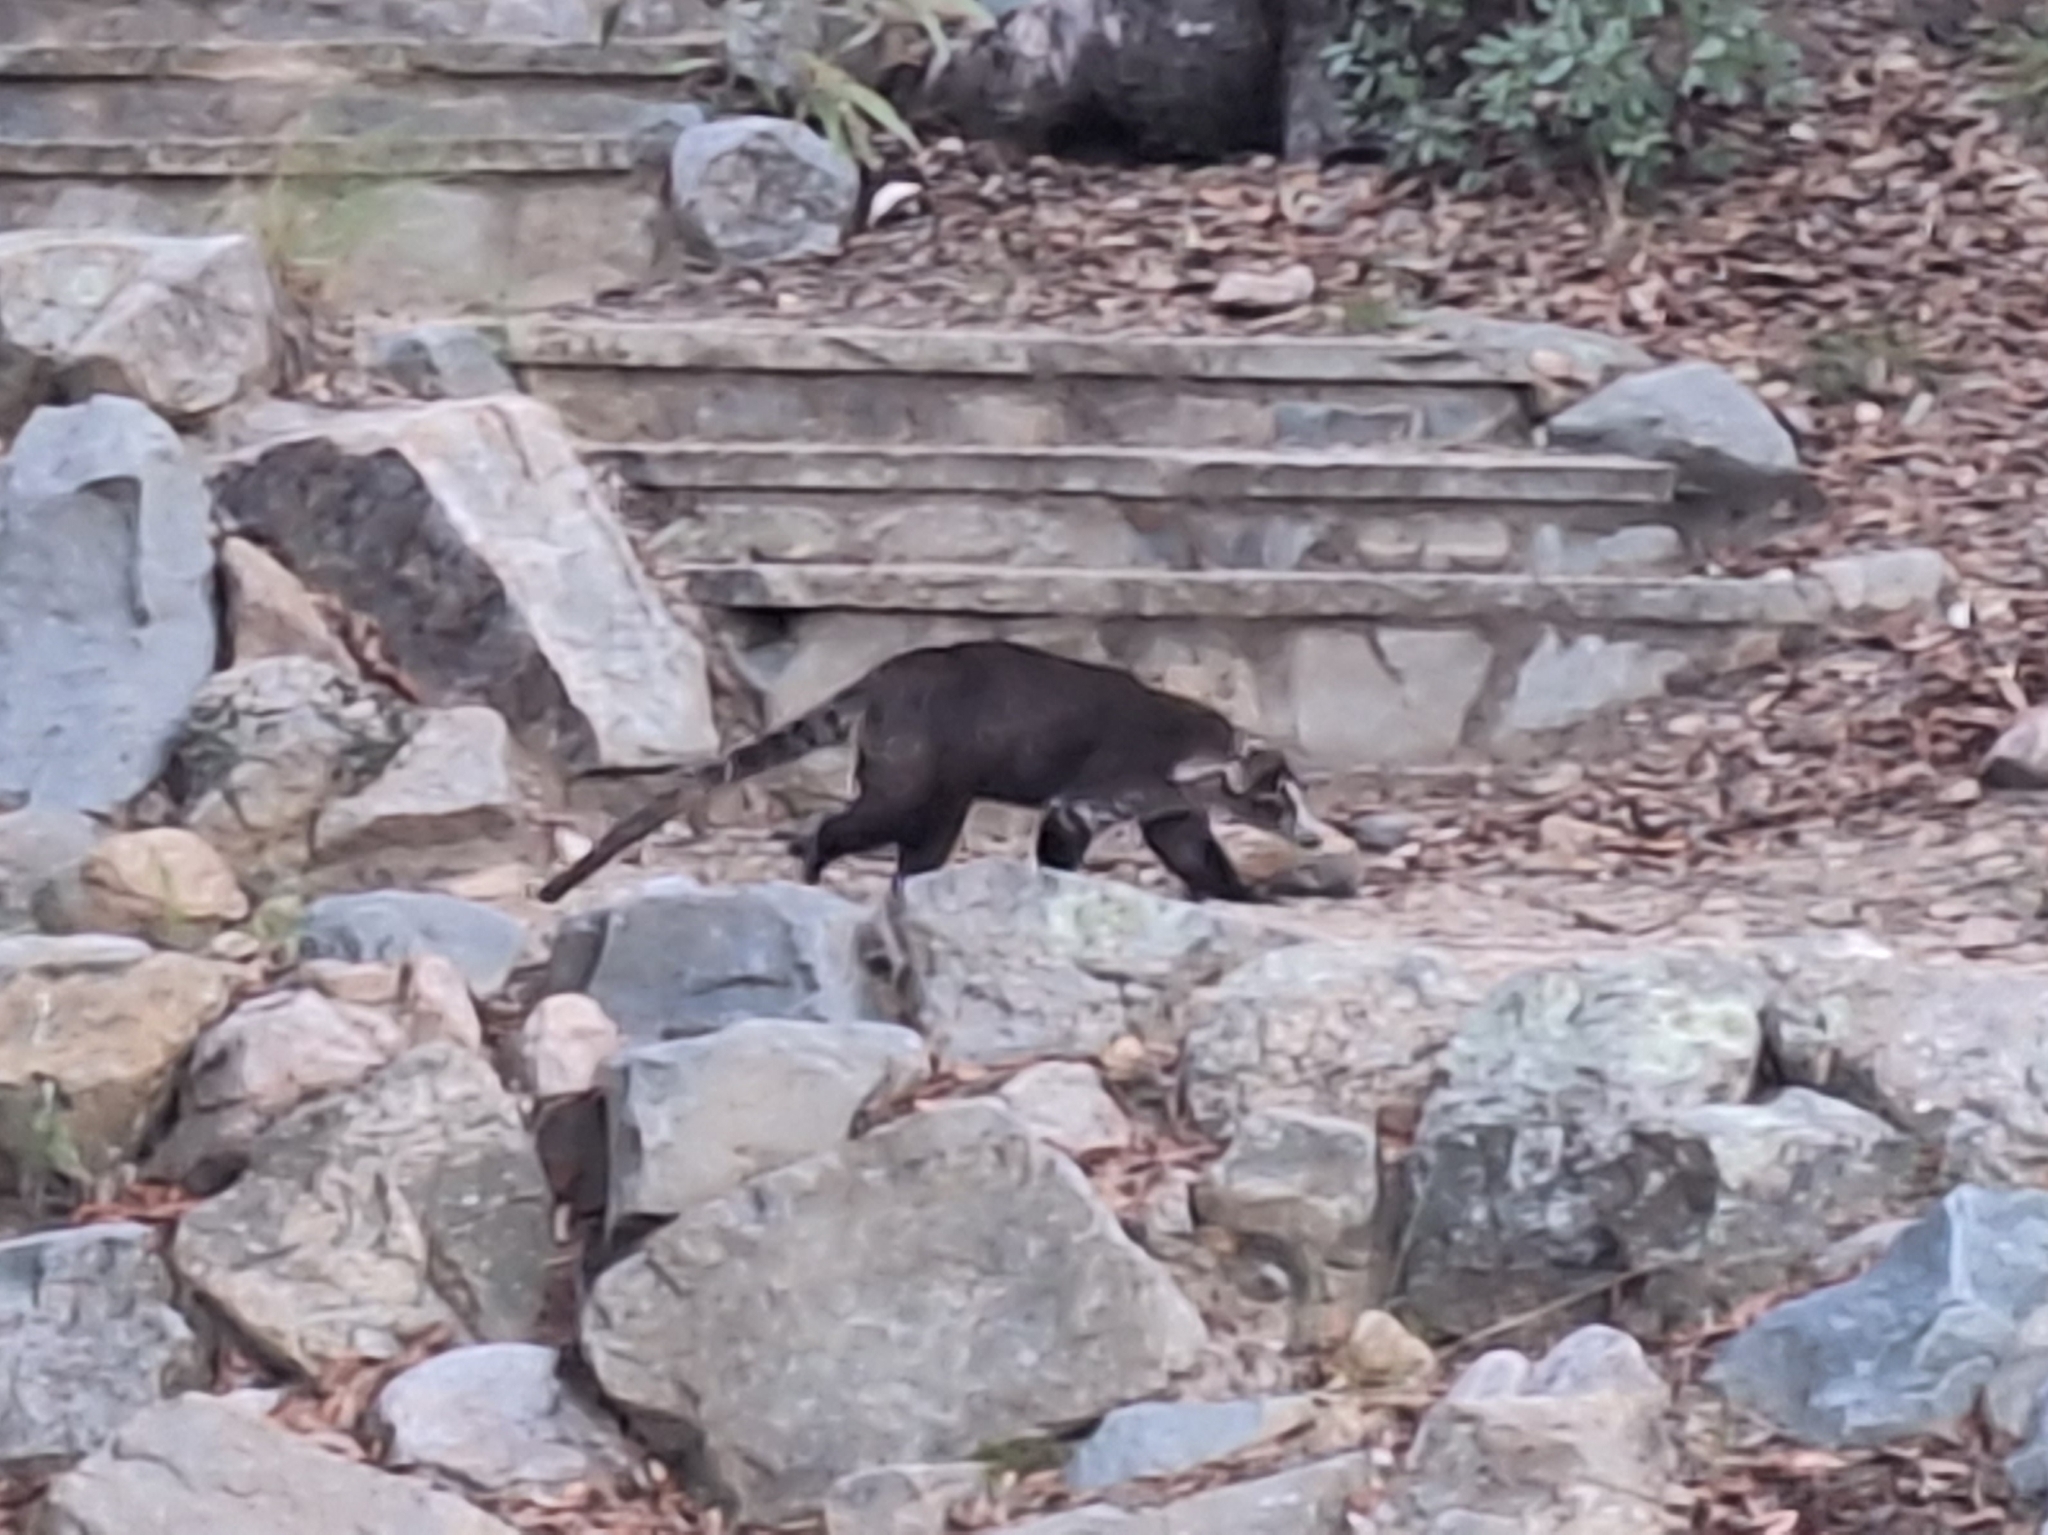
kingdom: Animalia
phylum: Chordata
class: Mammalia
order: Carnivora
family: Procyonidae
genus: Nasua
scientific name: Nasua narica
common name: White-nosed coati
